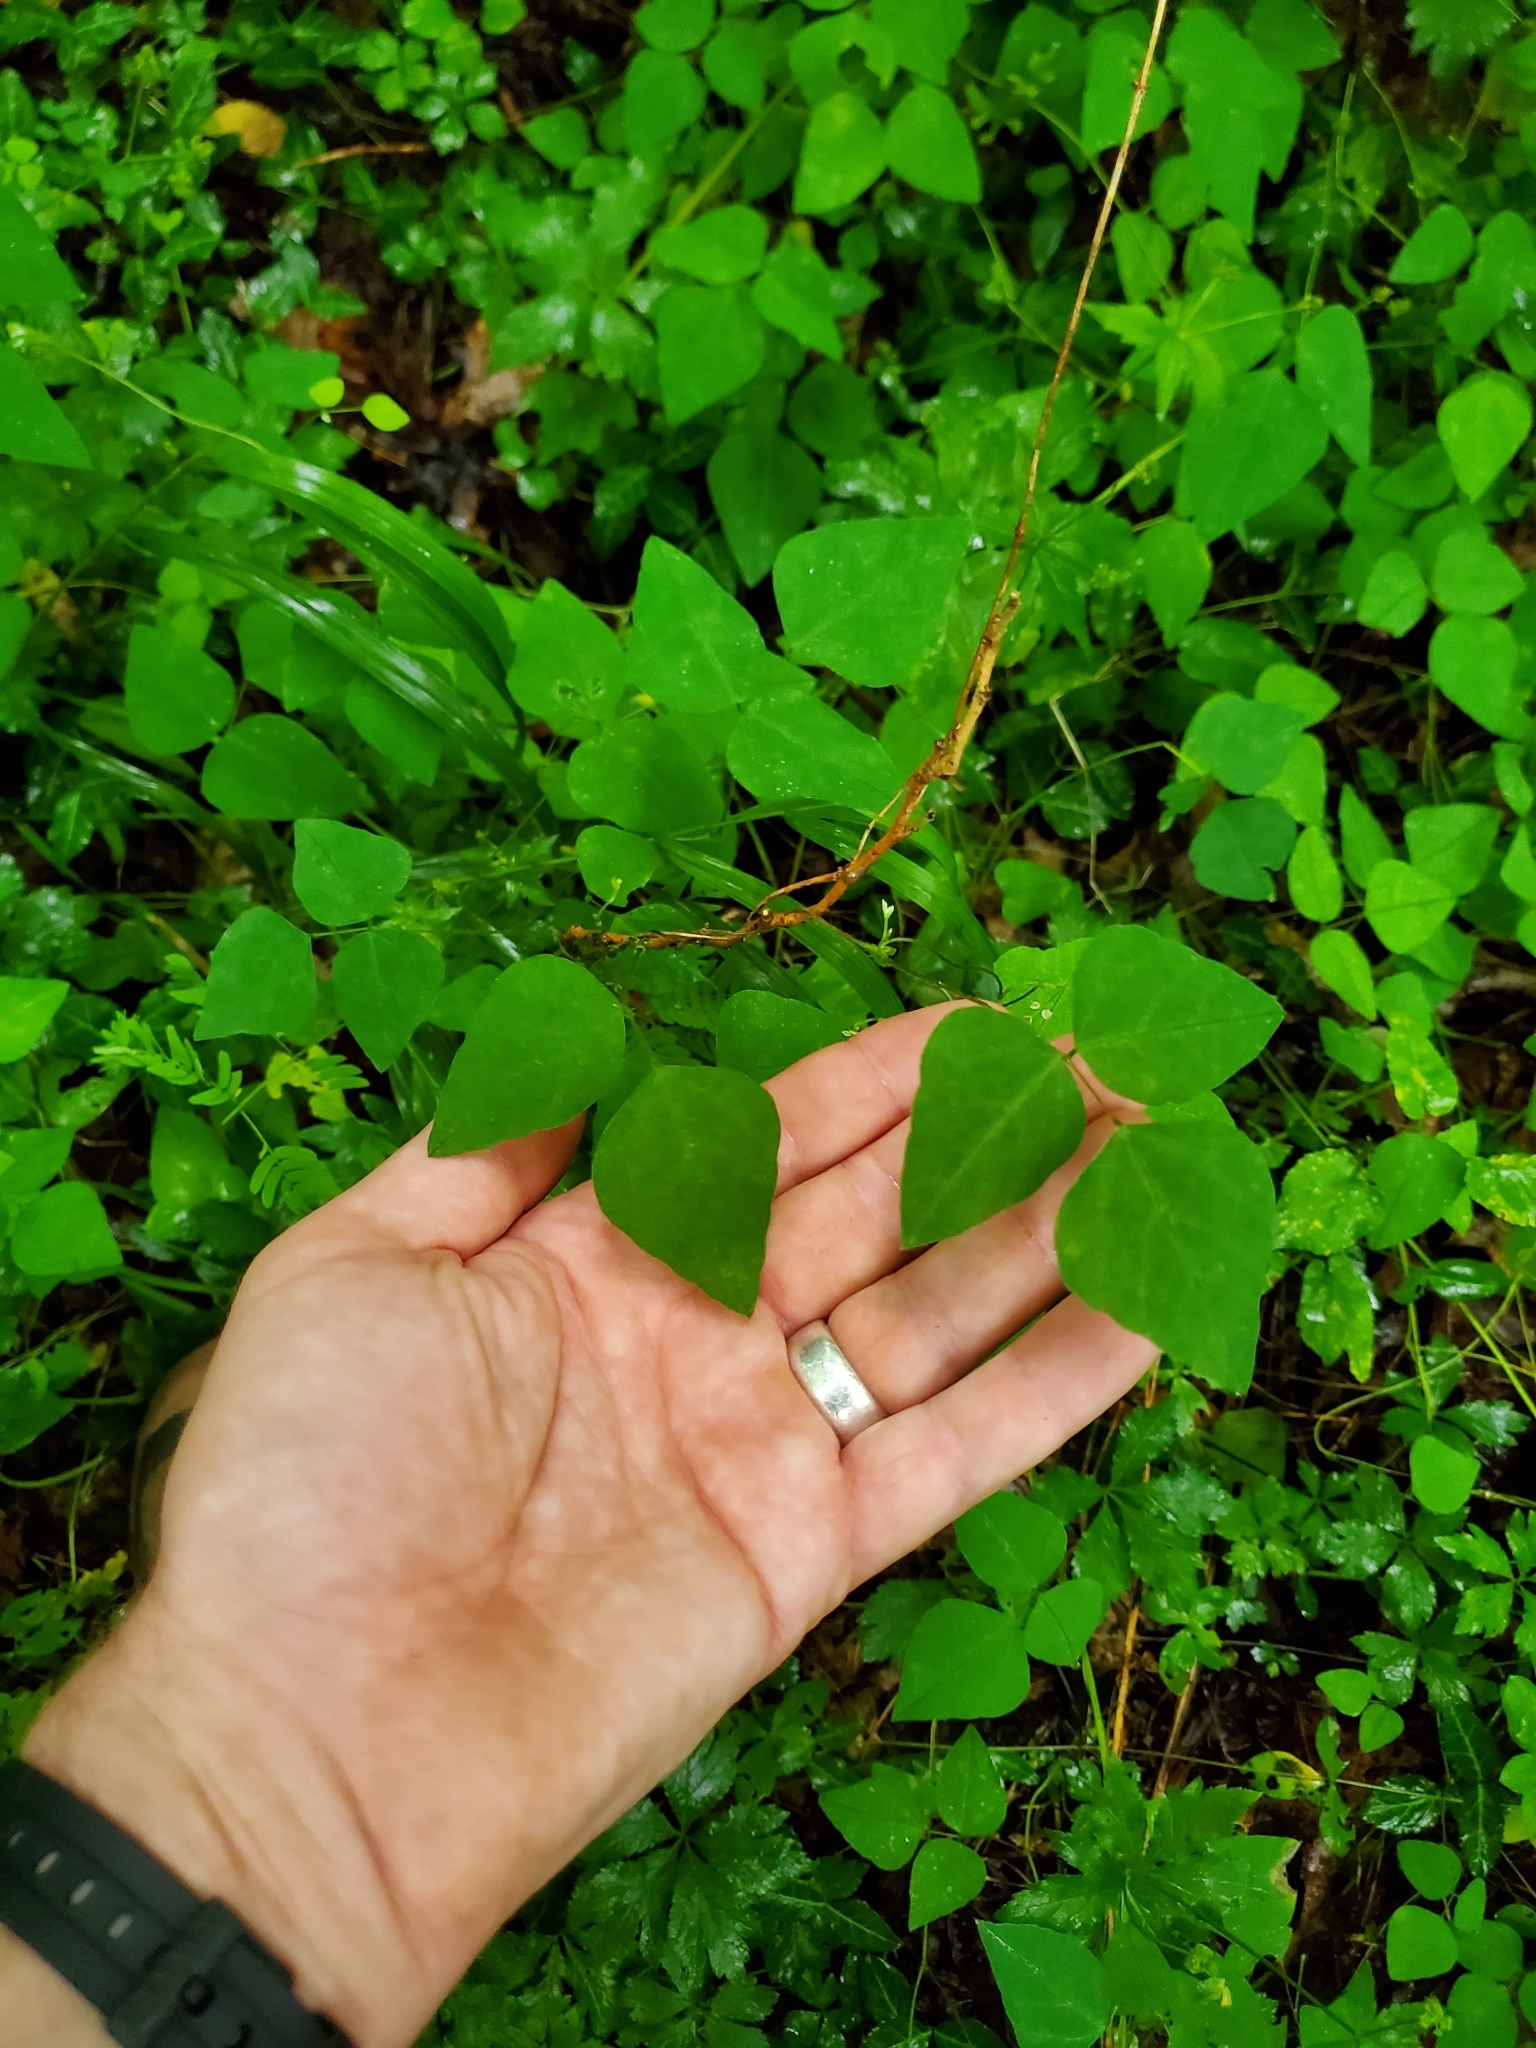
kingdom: Plantae
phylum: Tracheophyta
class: Magnoliopsida
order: Fabales
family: Fabaceae
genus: Amphicarpaea
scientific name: Amphicarpaea bracteata
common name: American hog peanut
